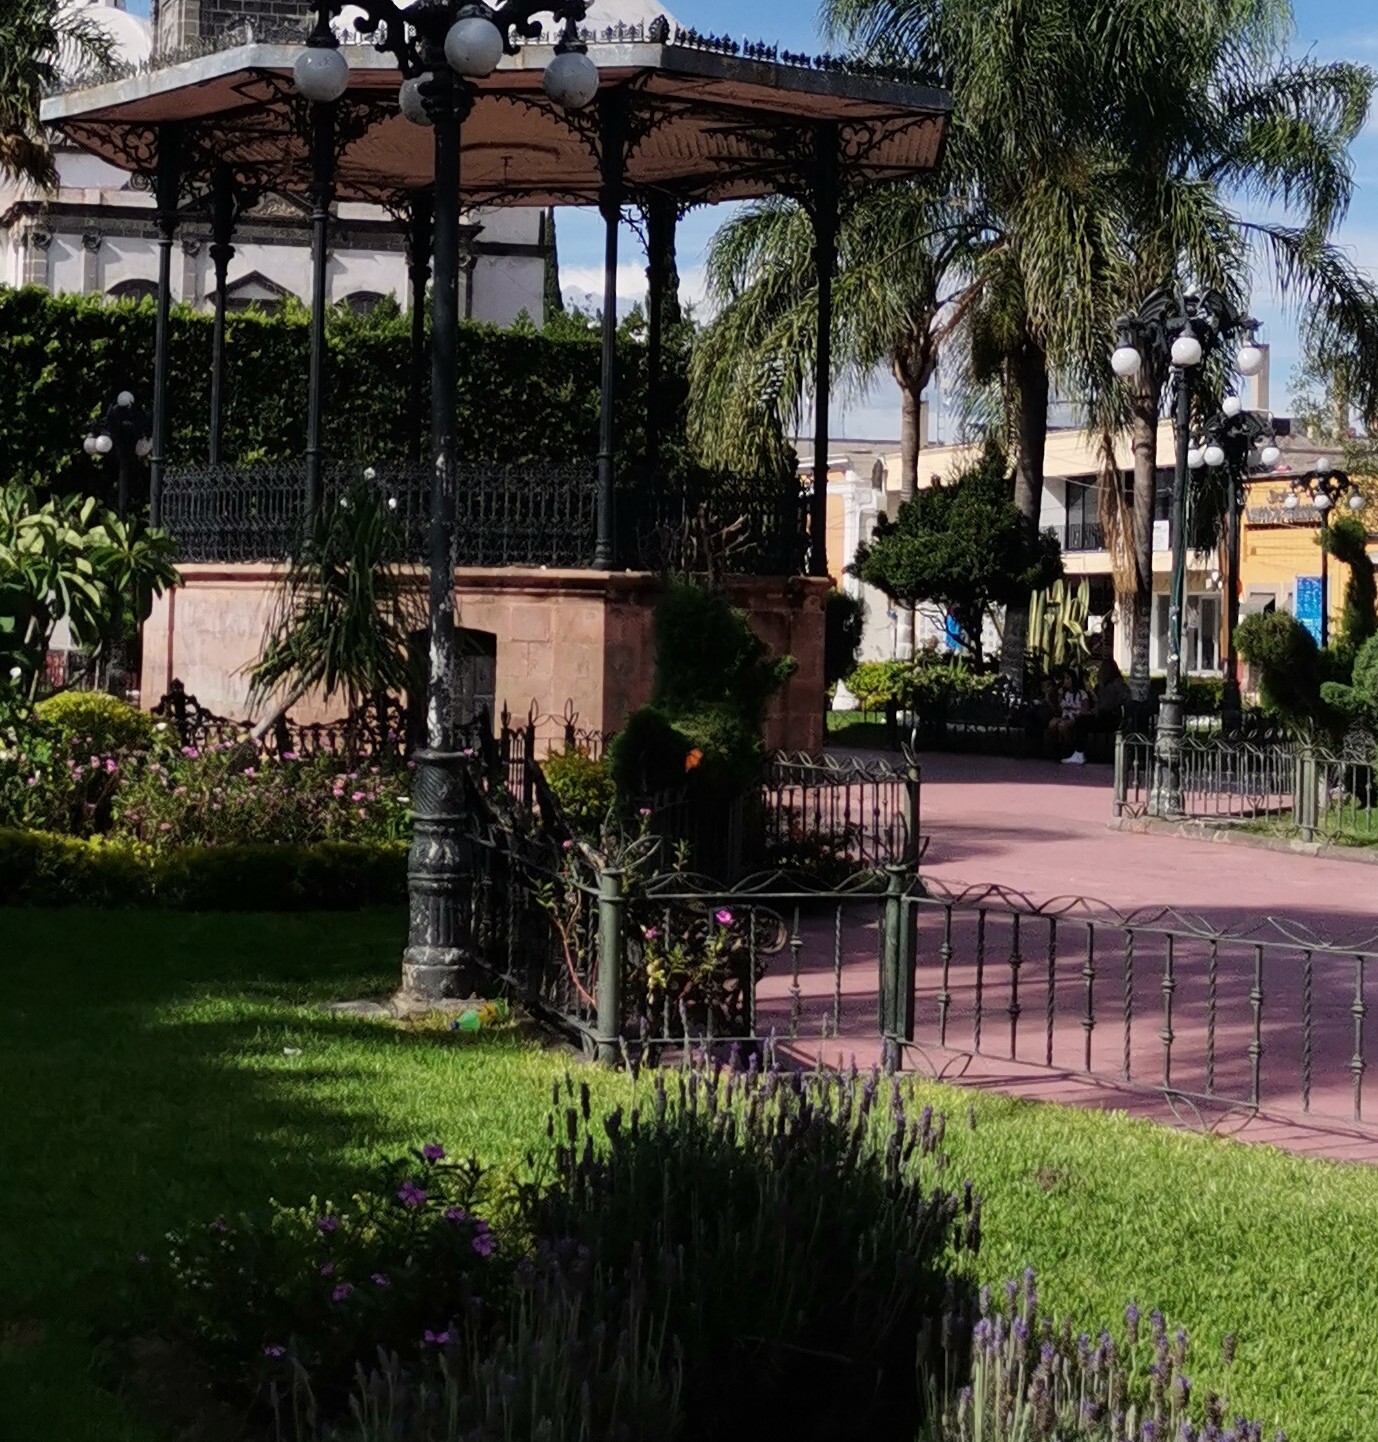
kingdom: Animalia
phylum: Arthropoda
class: Insecta
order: Lepidoptera
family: Nymphalidae
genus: Danaus
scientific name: Danaus plexippus
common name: Monarch
